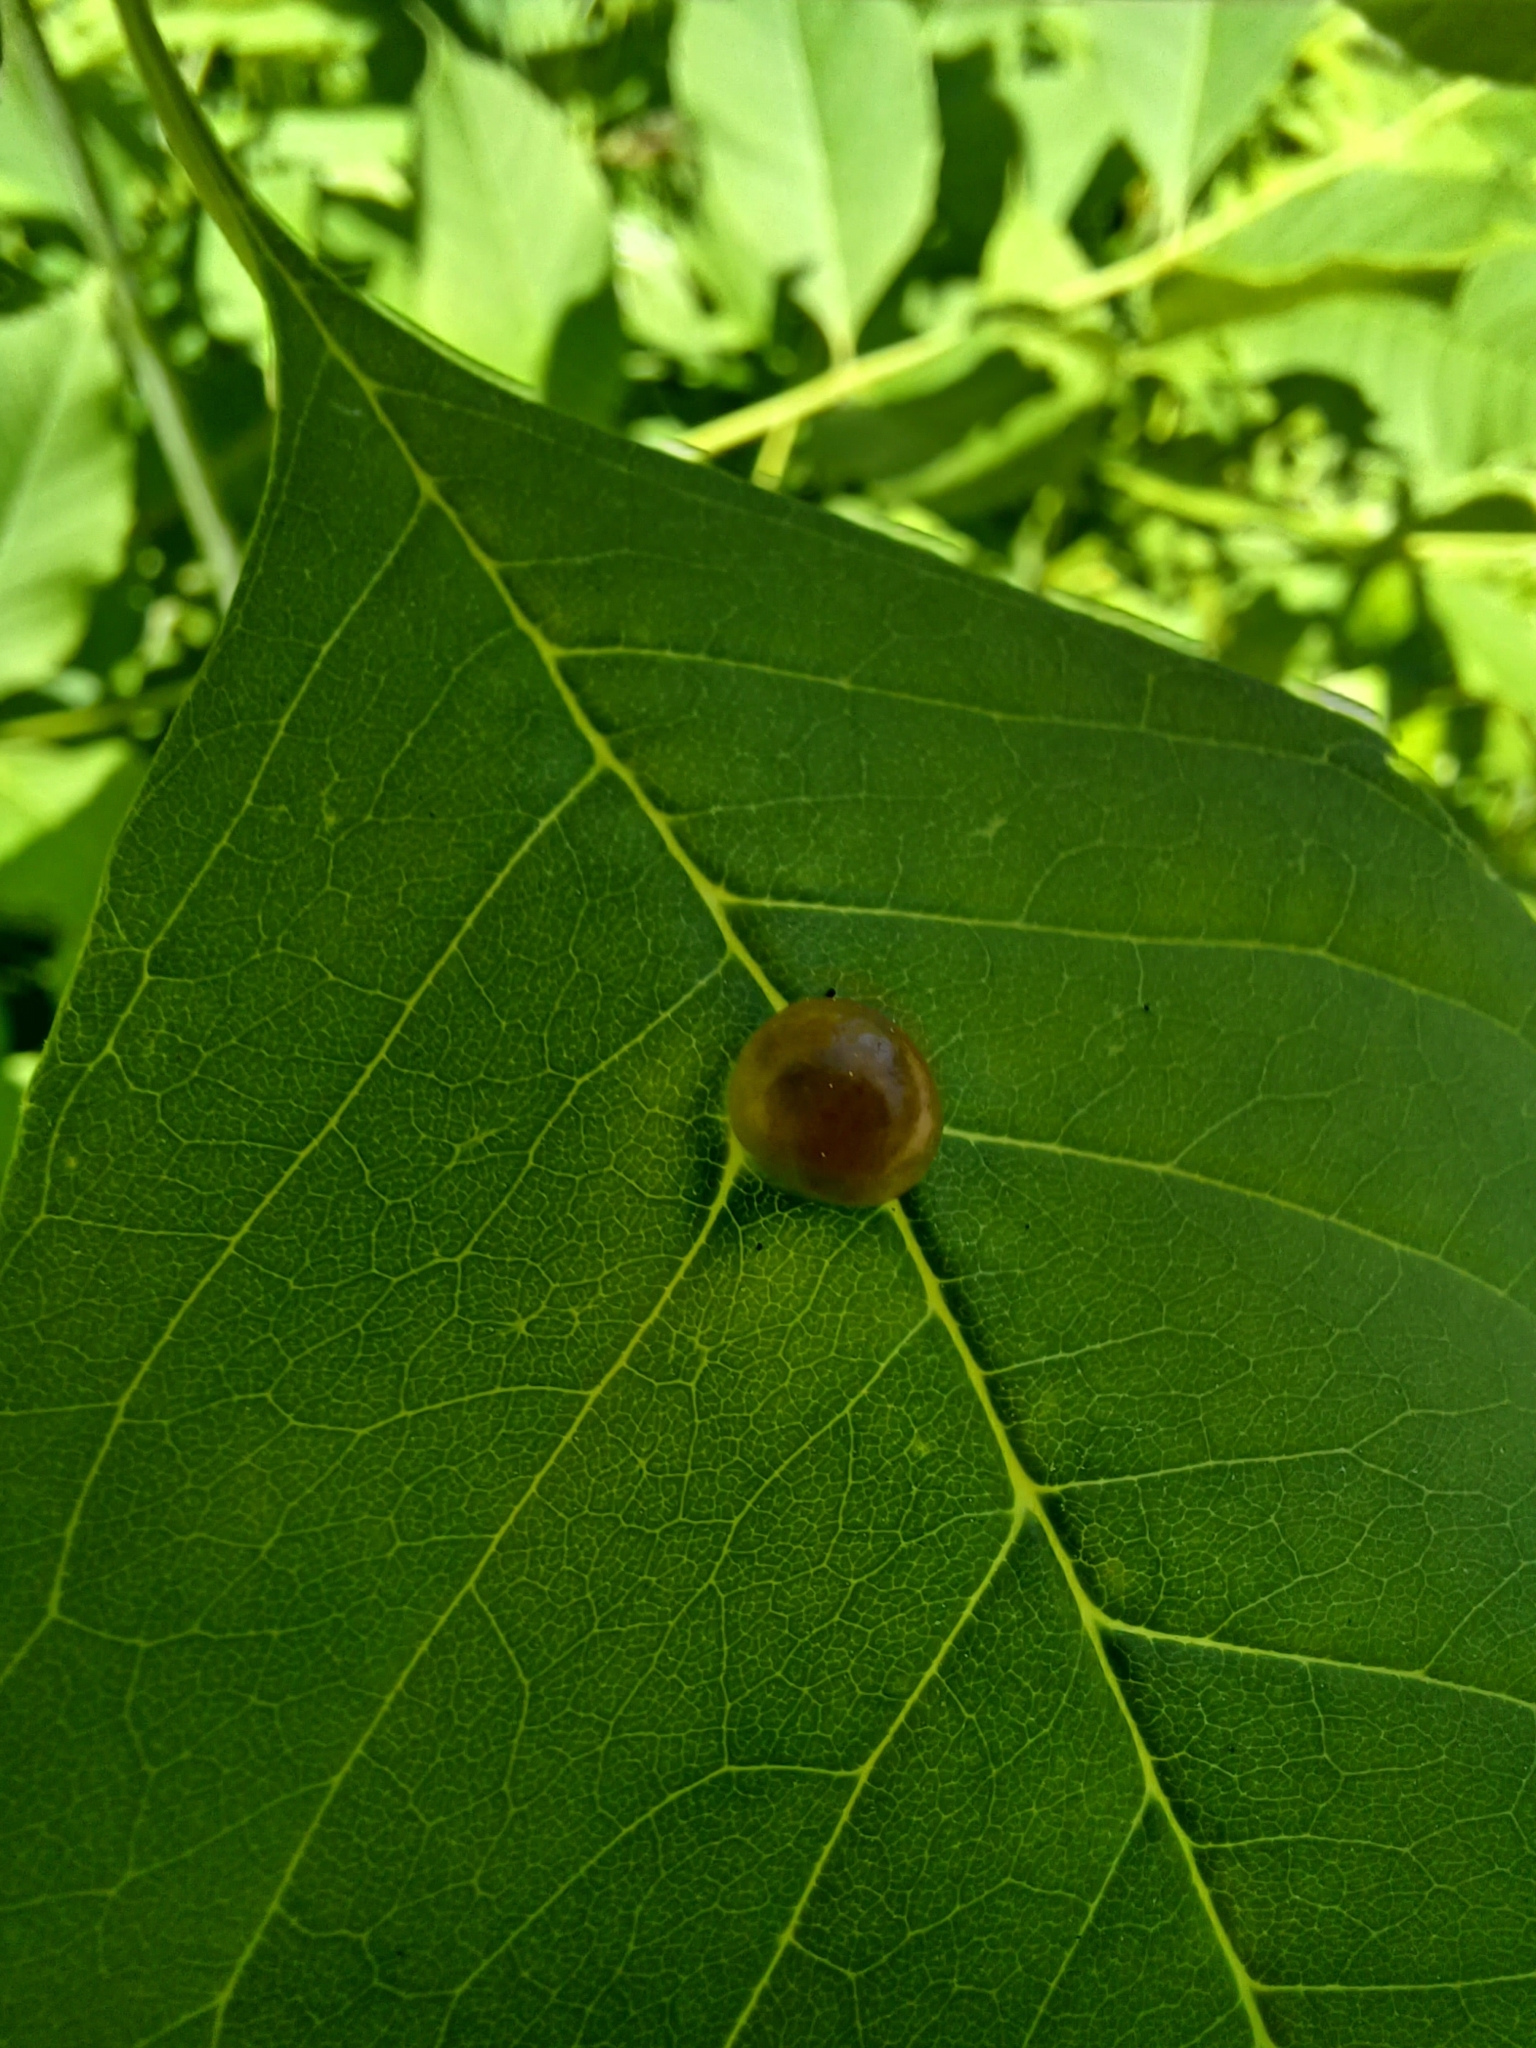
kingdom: Animalia
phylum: Arthropoda
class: Insecta
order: Diptera
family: Cecidomyiidae
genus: Dasineura
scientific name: Dasineura pellex
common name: Ash bullet gall midge
